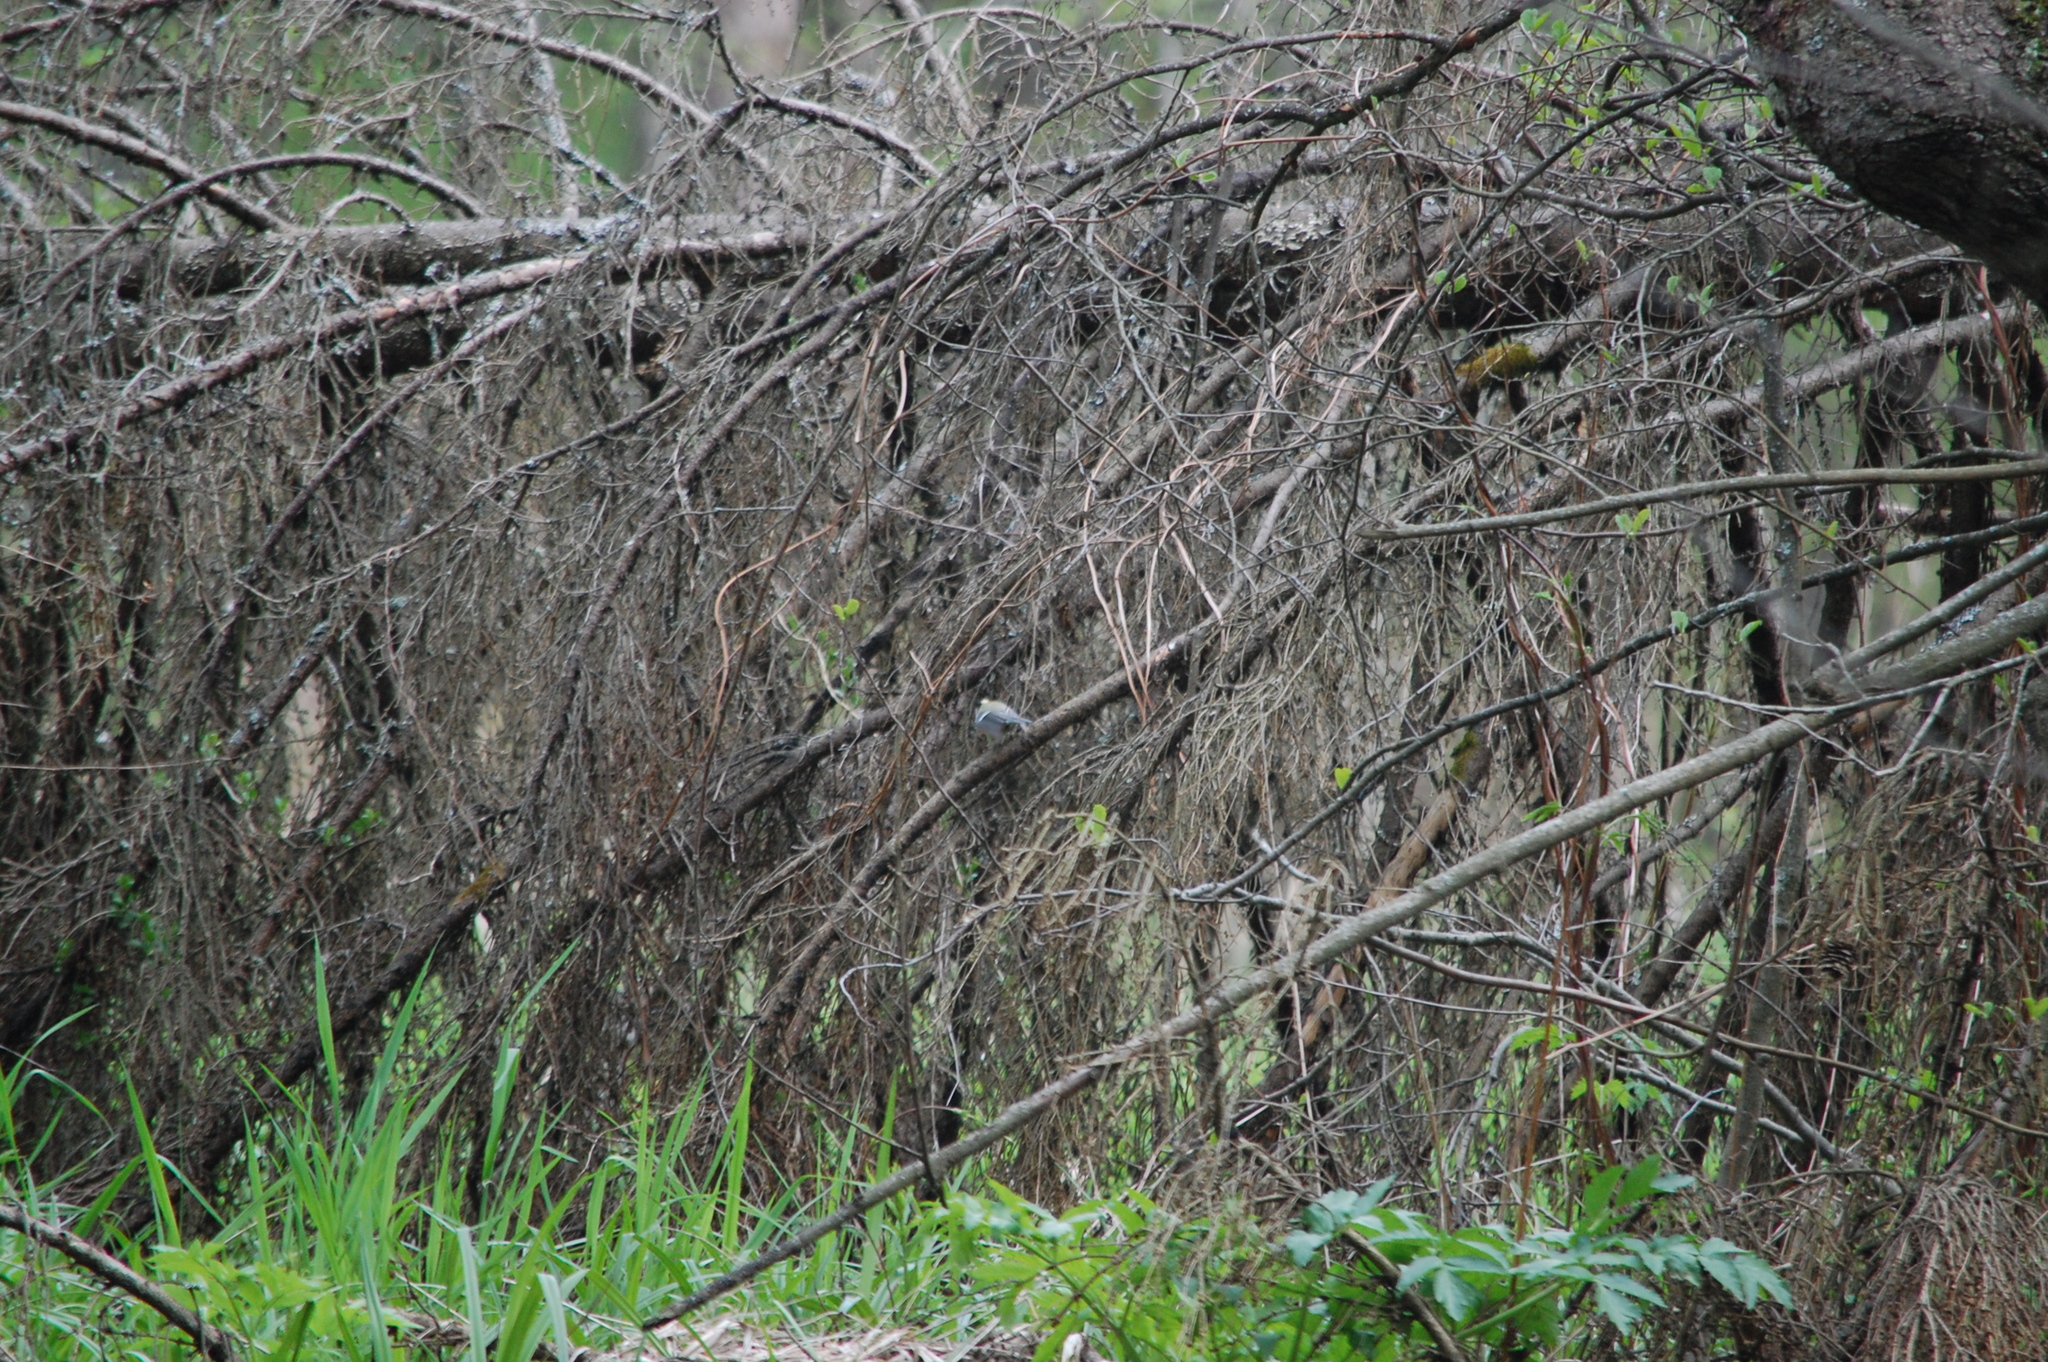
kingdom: Animalia
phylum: Chordata
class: Aves
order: Passeriformes
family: Paridae
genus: Parus
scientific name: Parus major
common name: Great tit
